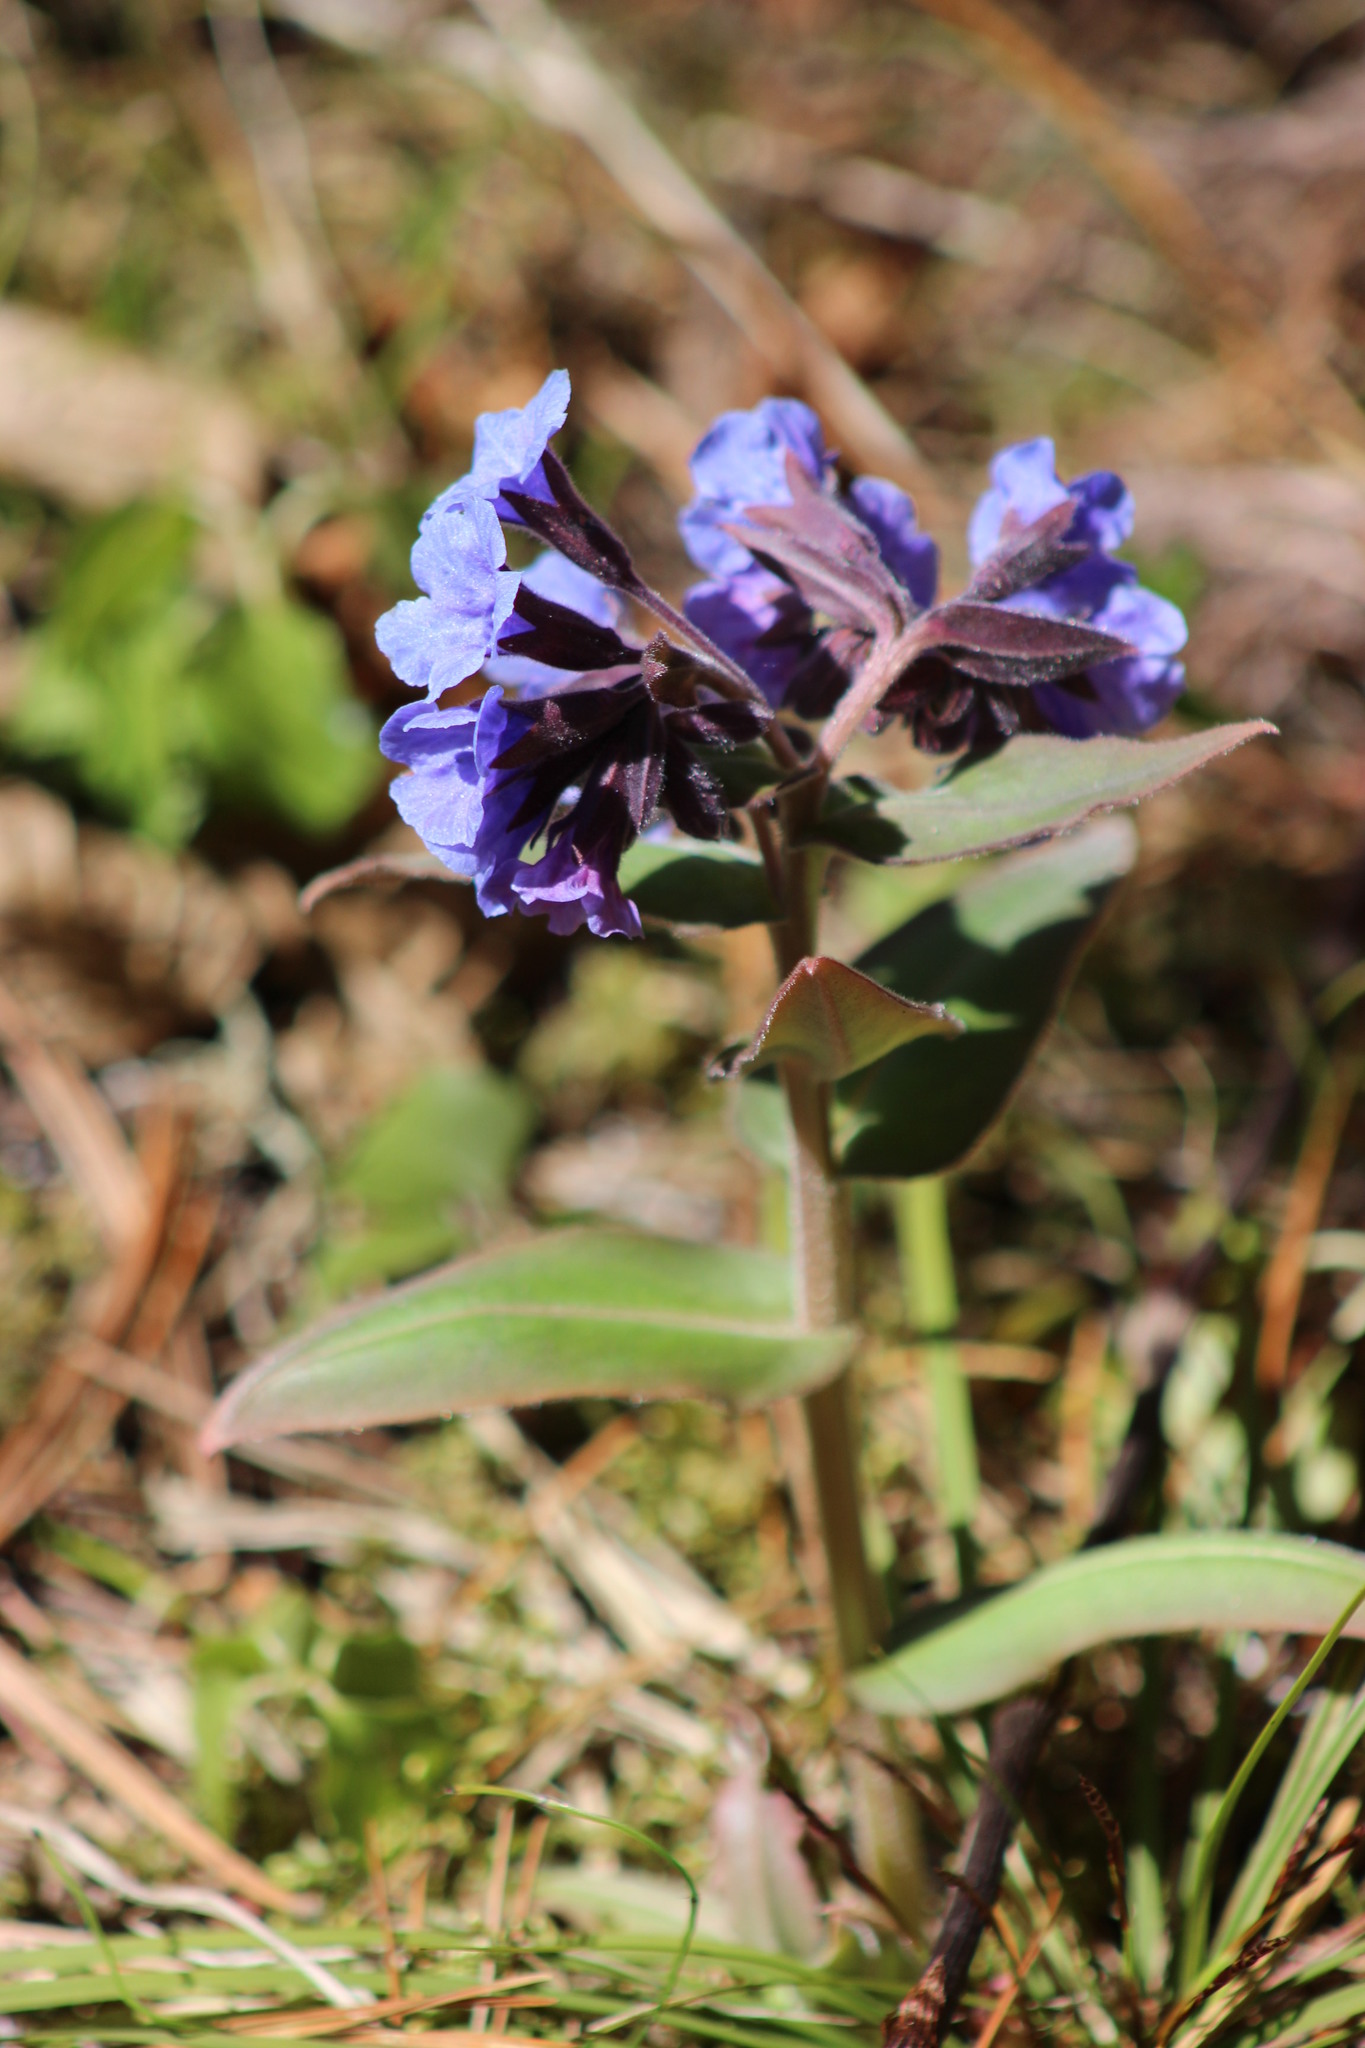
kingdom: Plantae
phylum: Tracheophyta
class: Magnoliopsida
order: Boraginales
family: Boraginaceae
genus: Pulmonaria
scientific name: Pulmonaria mollis
